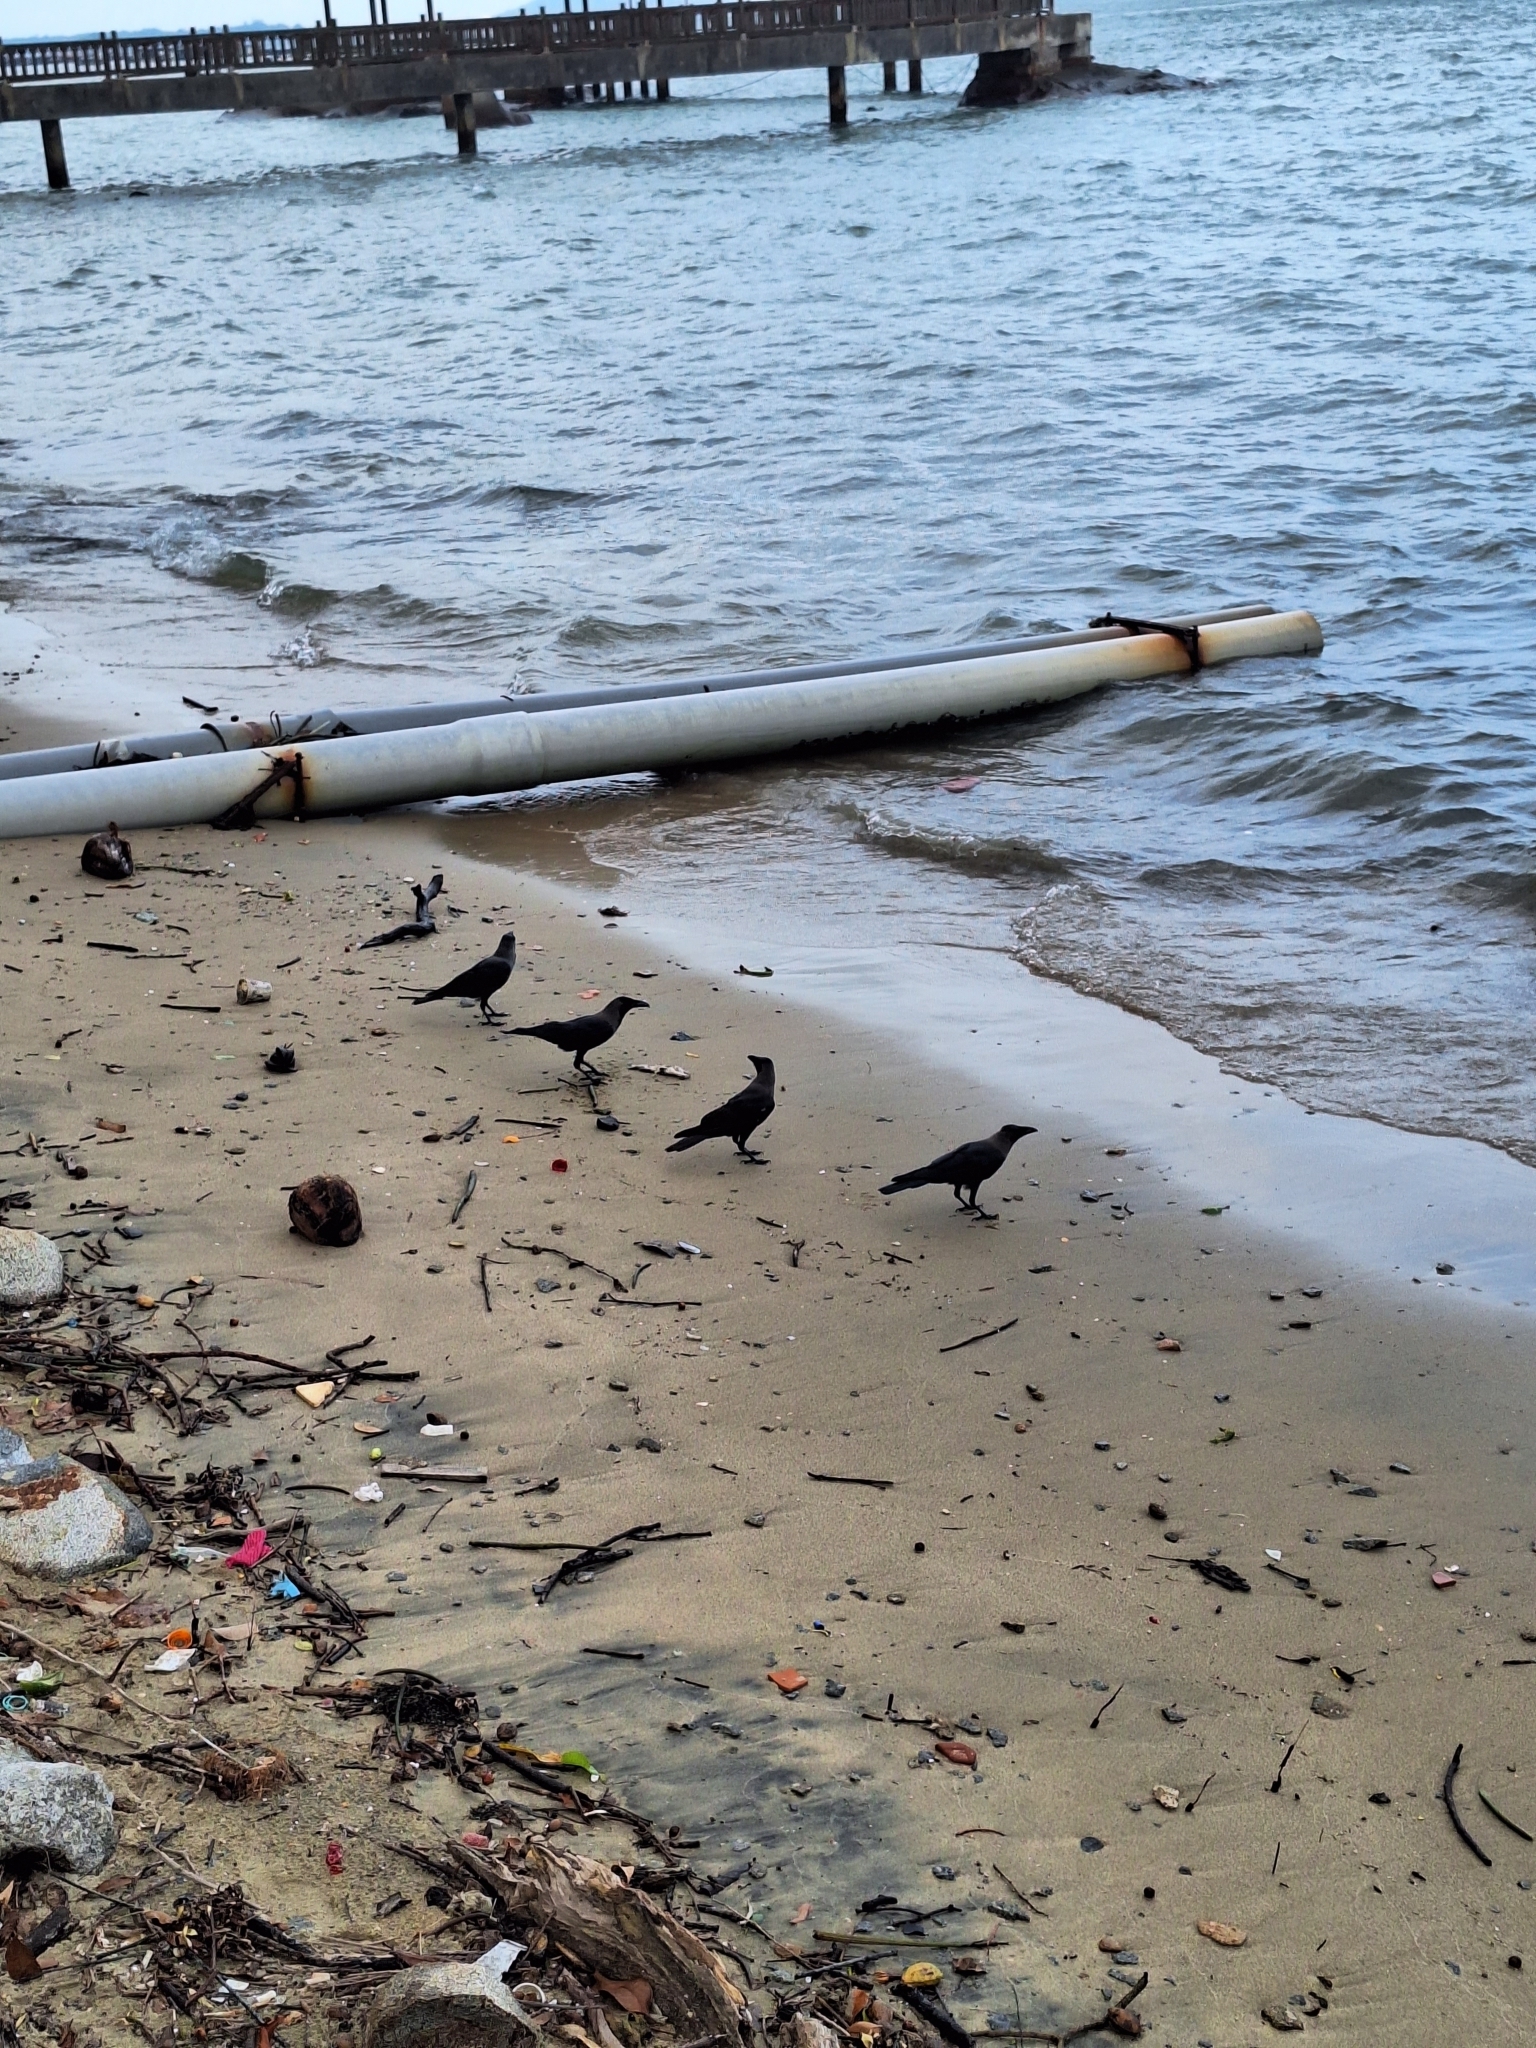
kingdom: Animalia
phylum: Chordata
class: Aves
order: Passeriformes
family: Corvidae
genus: Corvus
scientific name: Corvus splendens
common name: House crow
